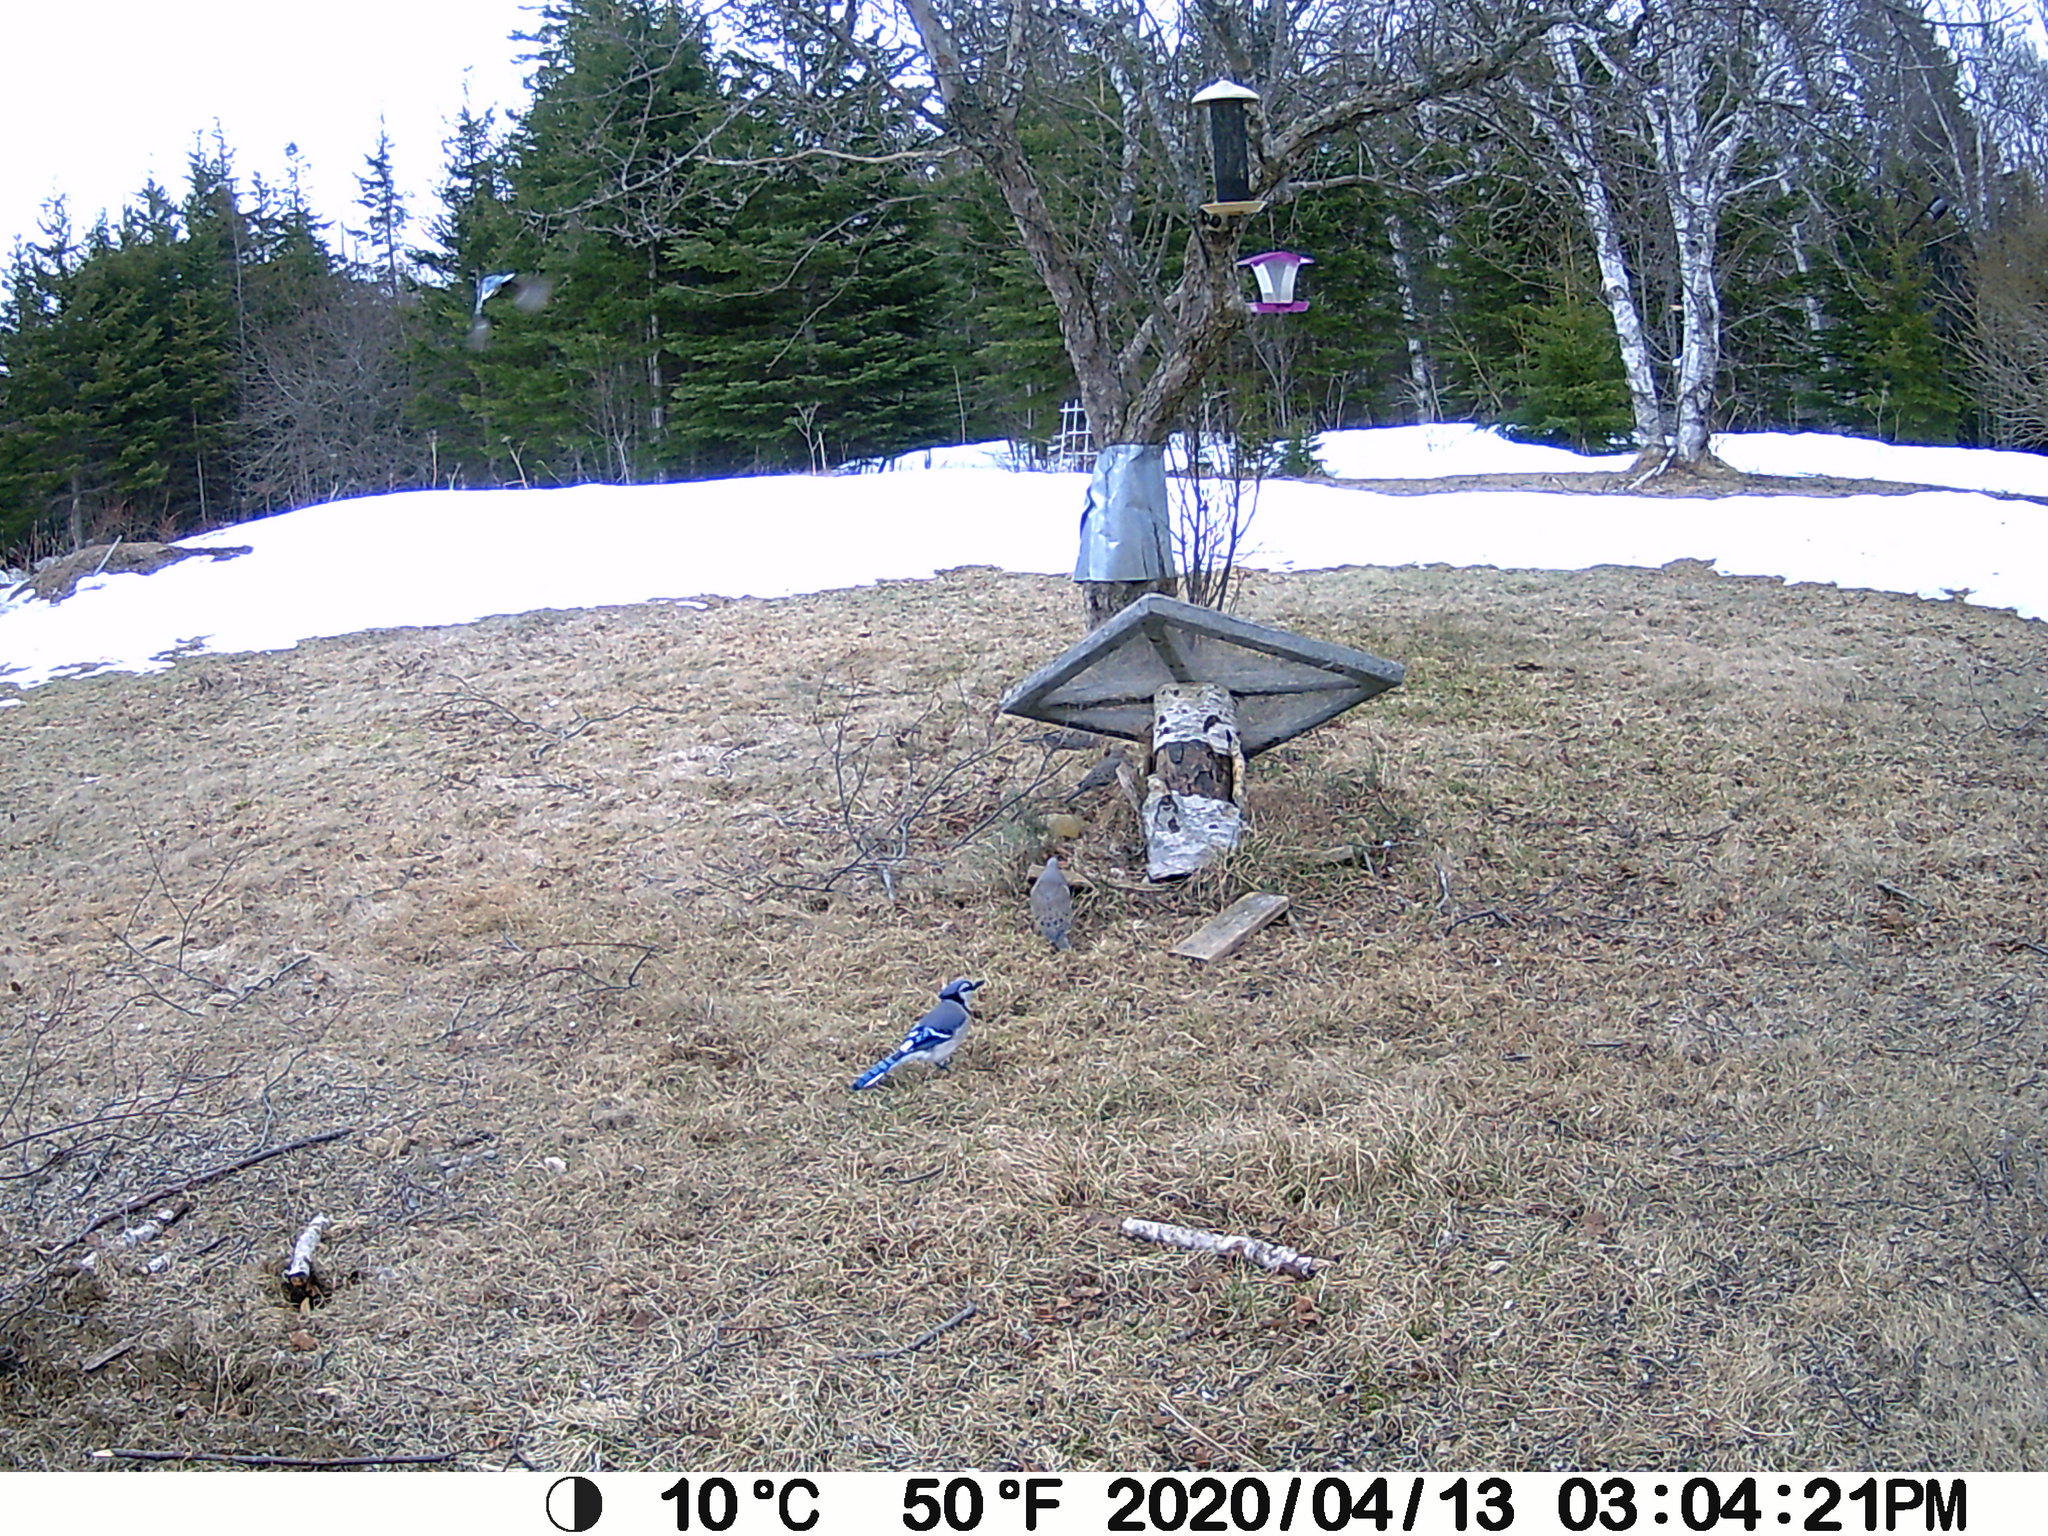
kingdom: Animalia
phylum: Chordata
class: Aves
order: Passeriformes
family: Corvidae
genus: Cyanocitta
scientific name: Cyanocitta cristata
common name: Blue jay
